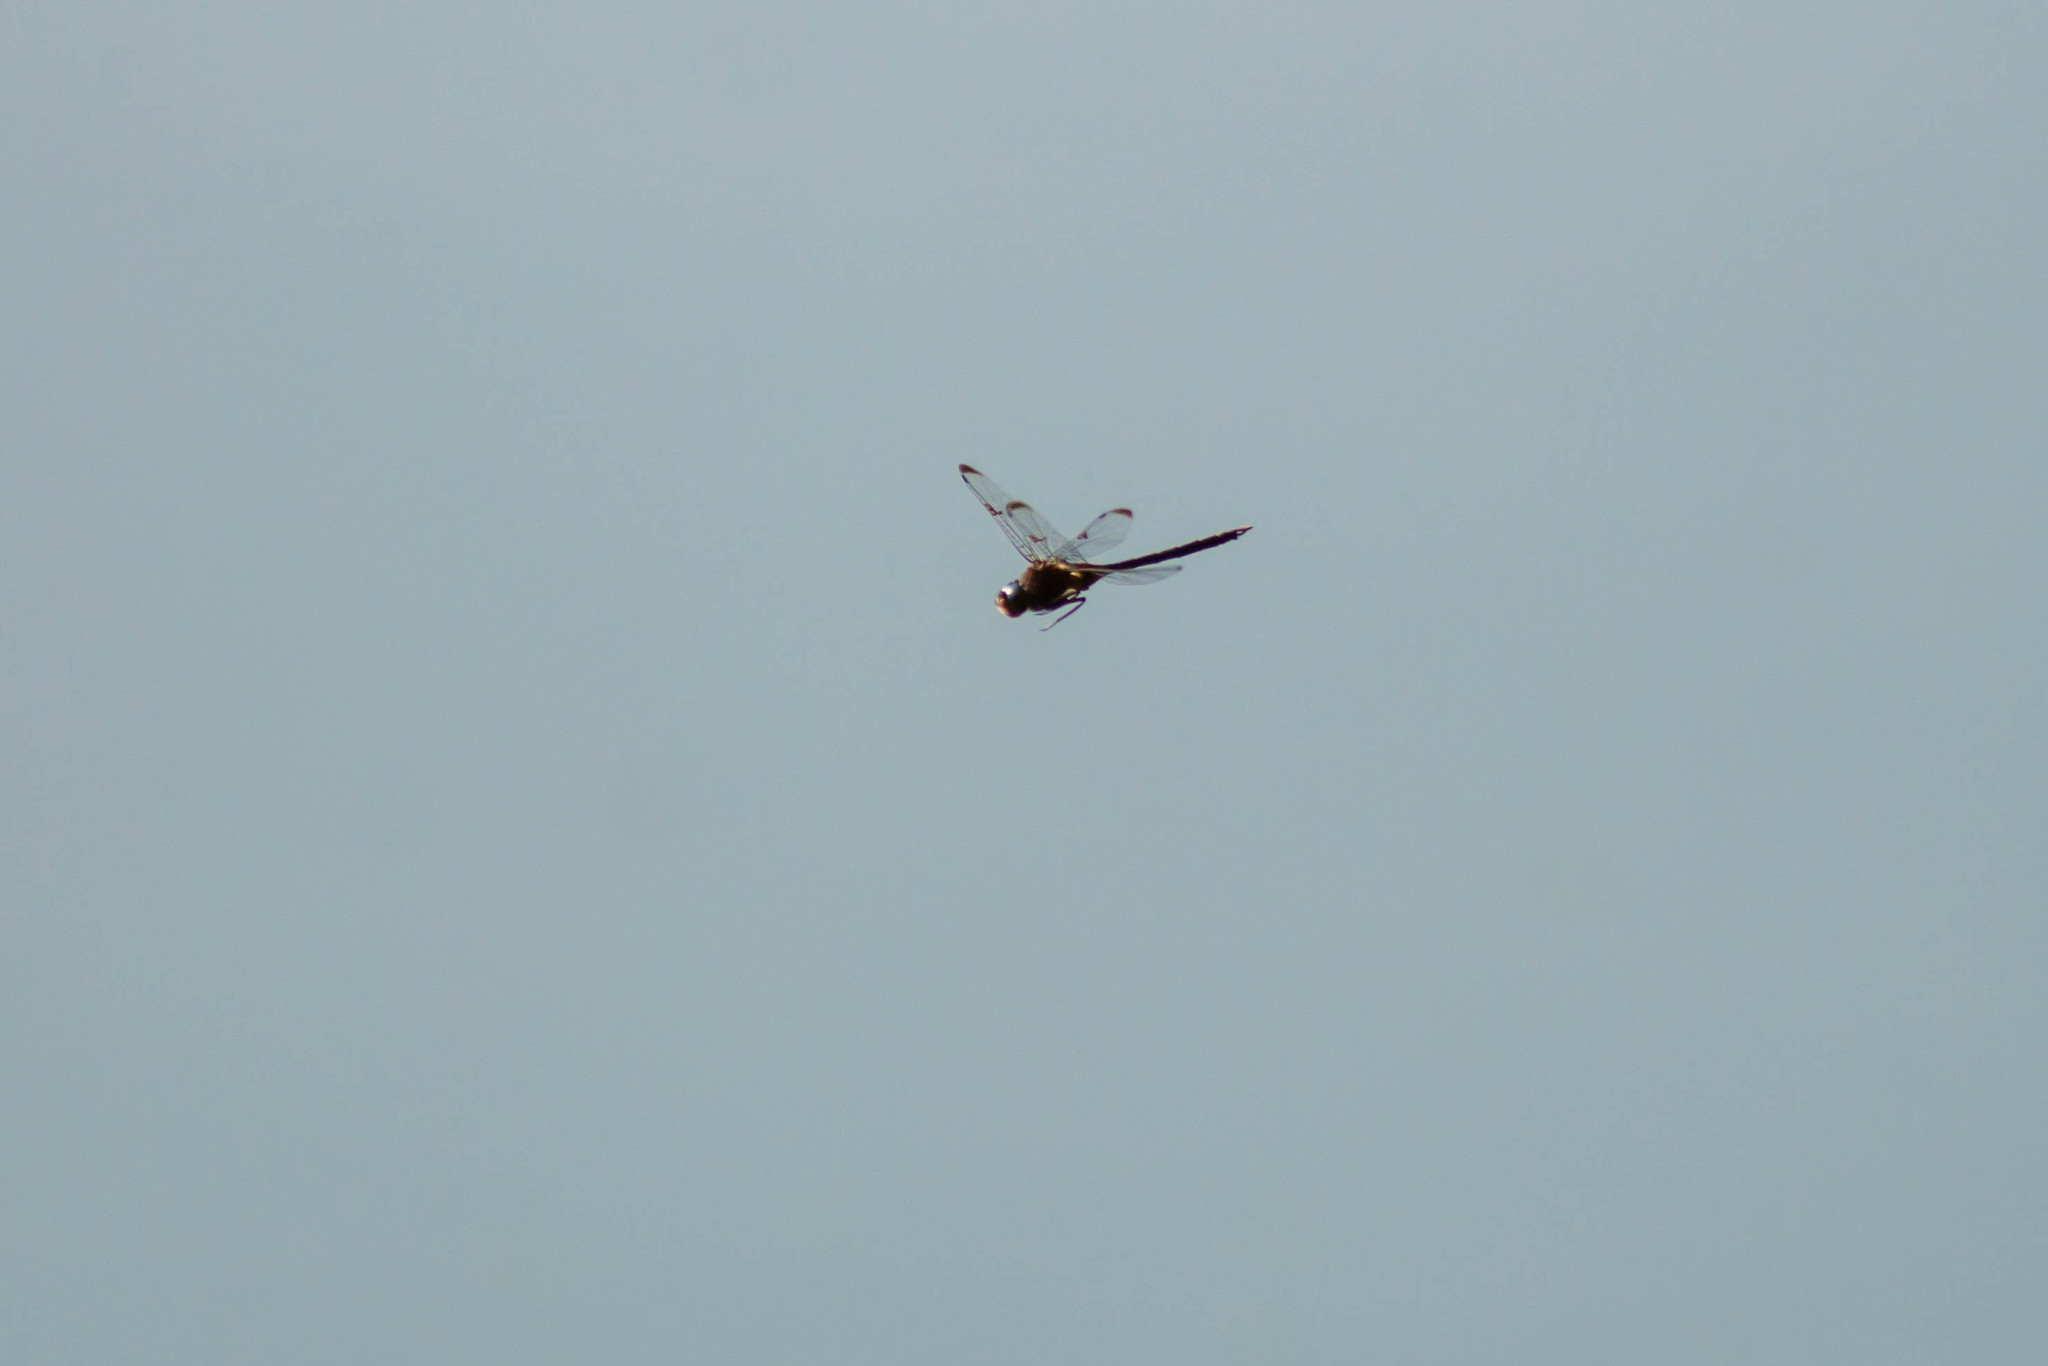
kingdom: Animalia
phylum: Arthropoda
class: Insecta
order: Odonata
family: Corduliidae
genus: Epitheca
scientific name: Epitheca princeps
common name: Prince baskettail
